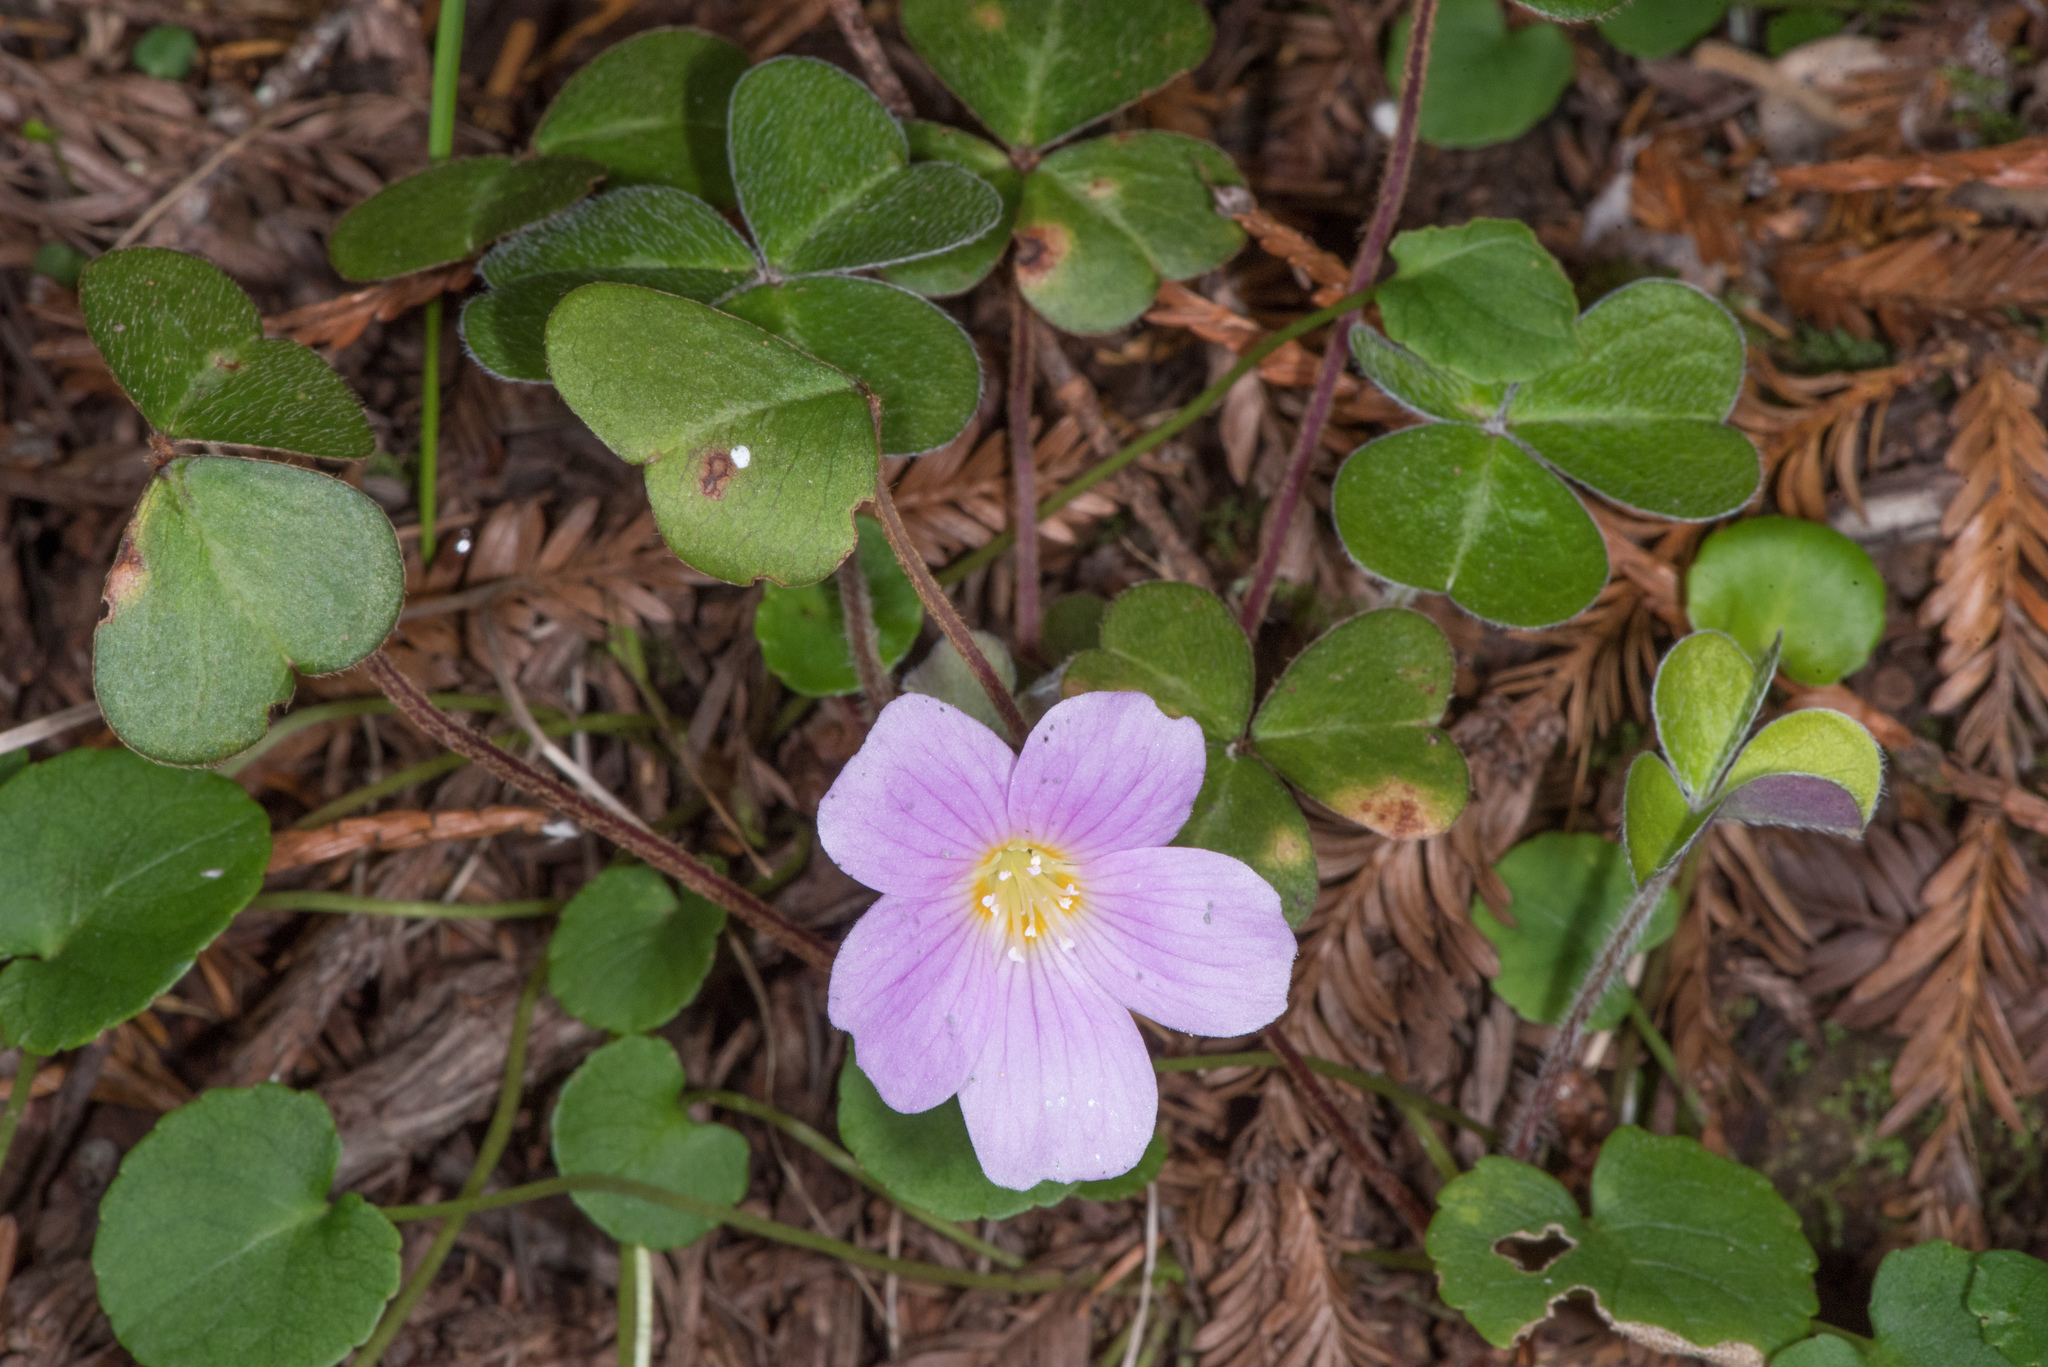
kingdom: Plantae
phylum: Tracheophyta
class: Magnoliopsida
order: Oxalidales
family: Oxalidaceae
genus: Oxalis
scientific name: Oxalis oregana
